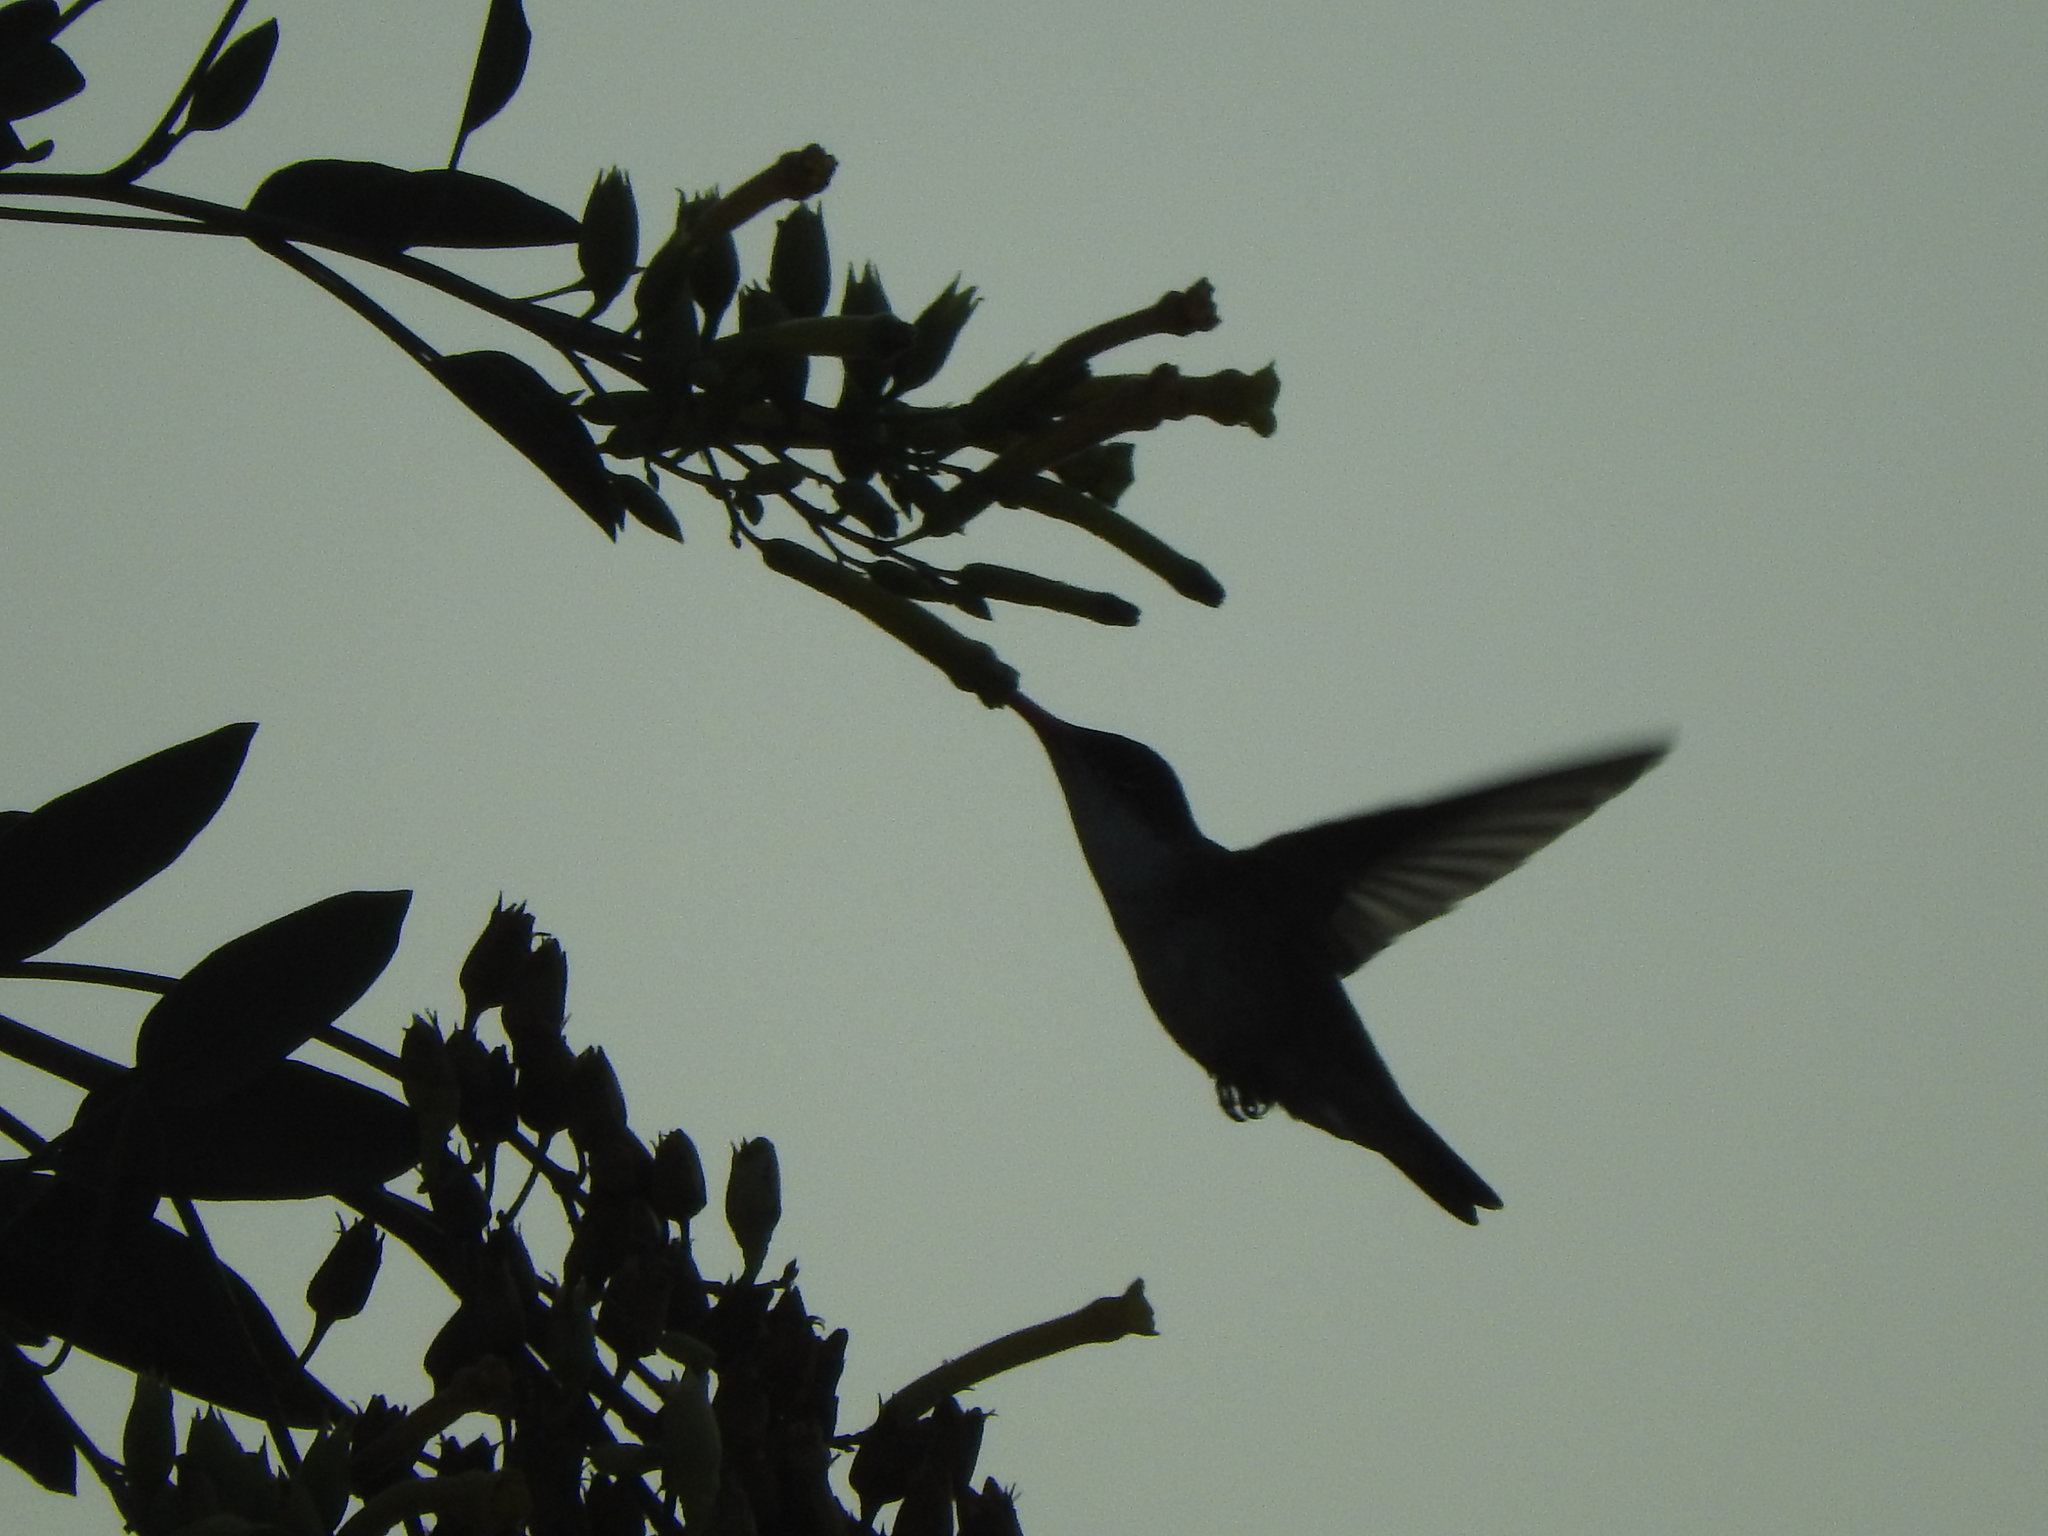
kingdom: Animalia
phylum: Chordata
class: Aves
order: Apodiformes
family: Trochilidae
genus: Leucolia
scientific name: Leucolia violiceps
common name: Violet-crowned hummingbird
